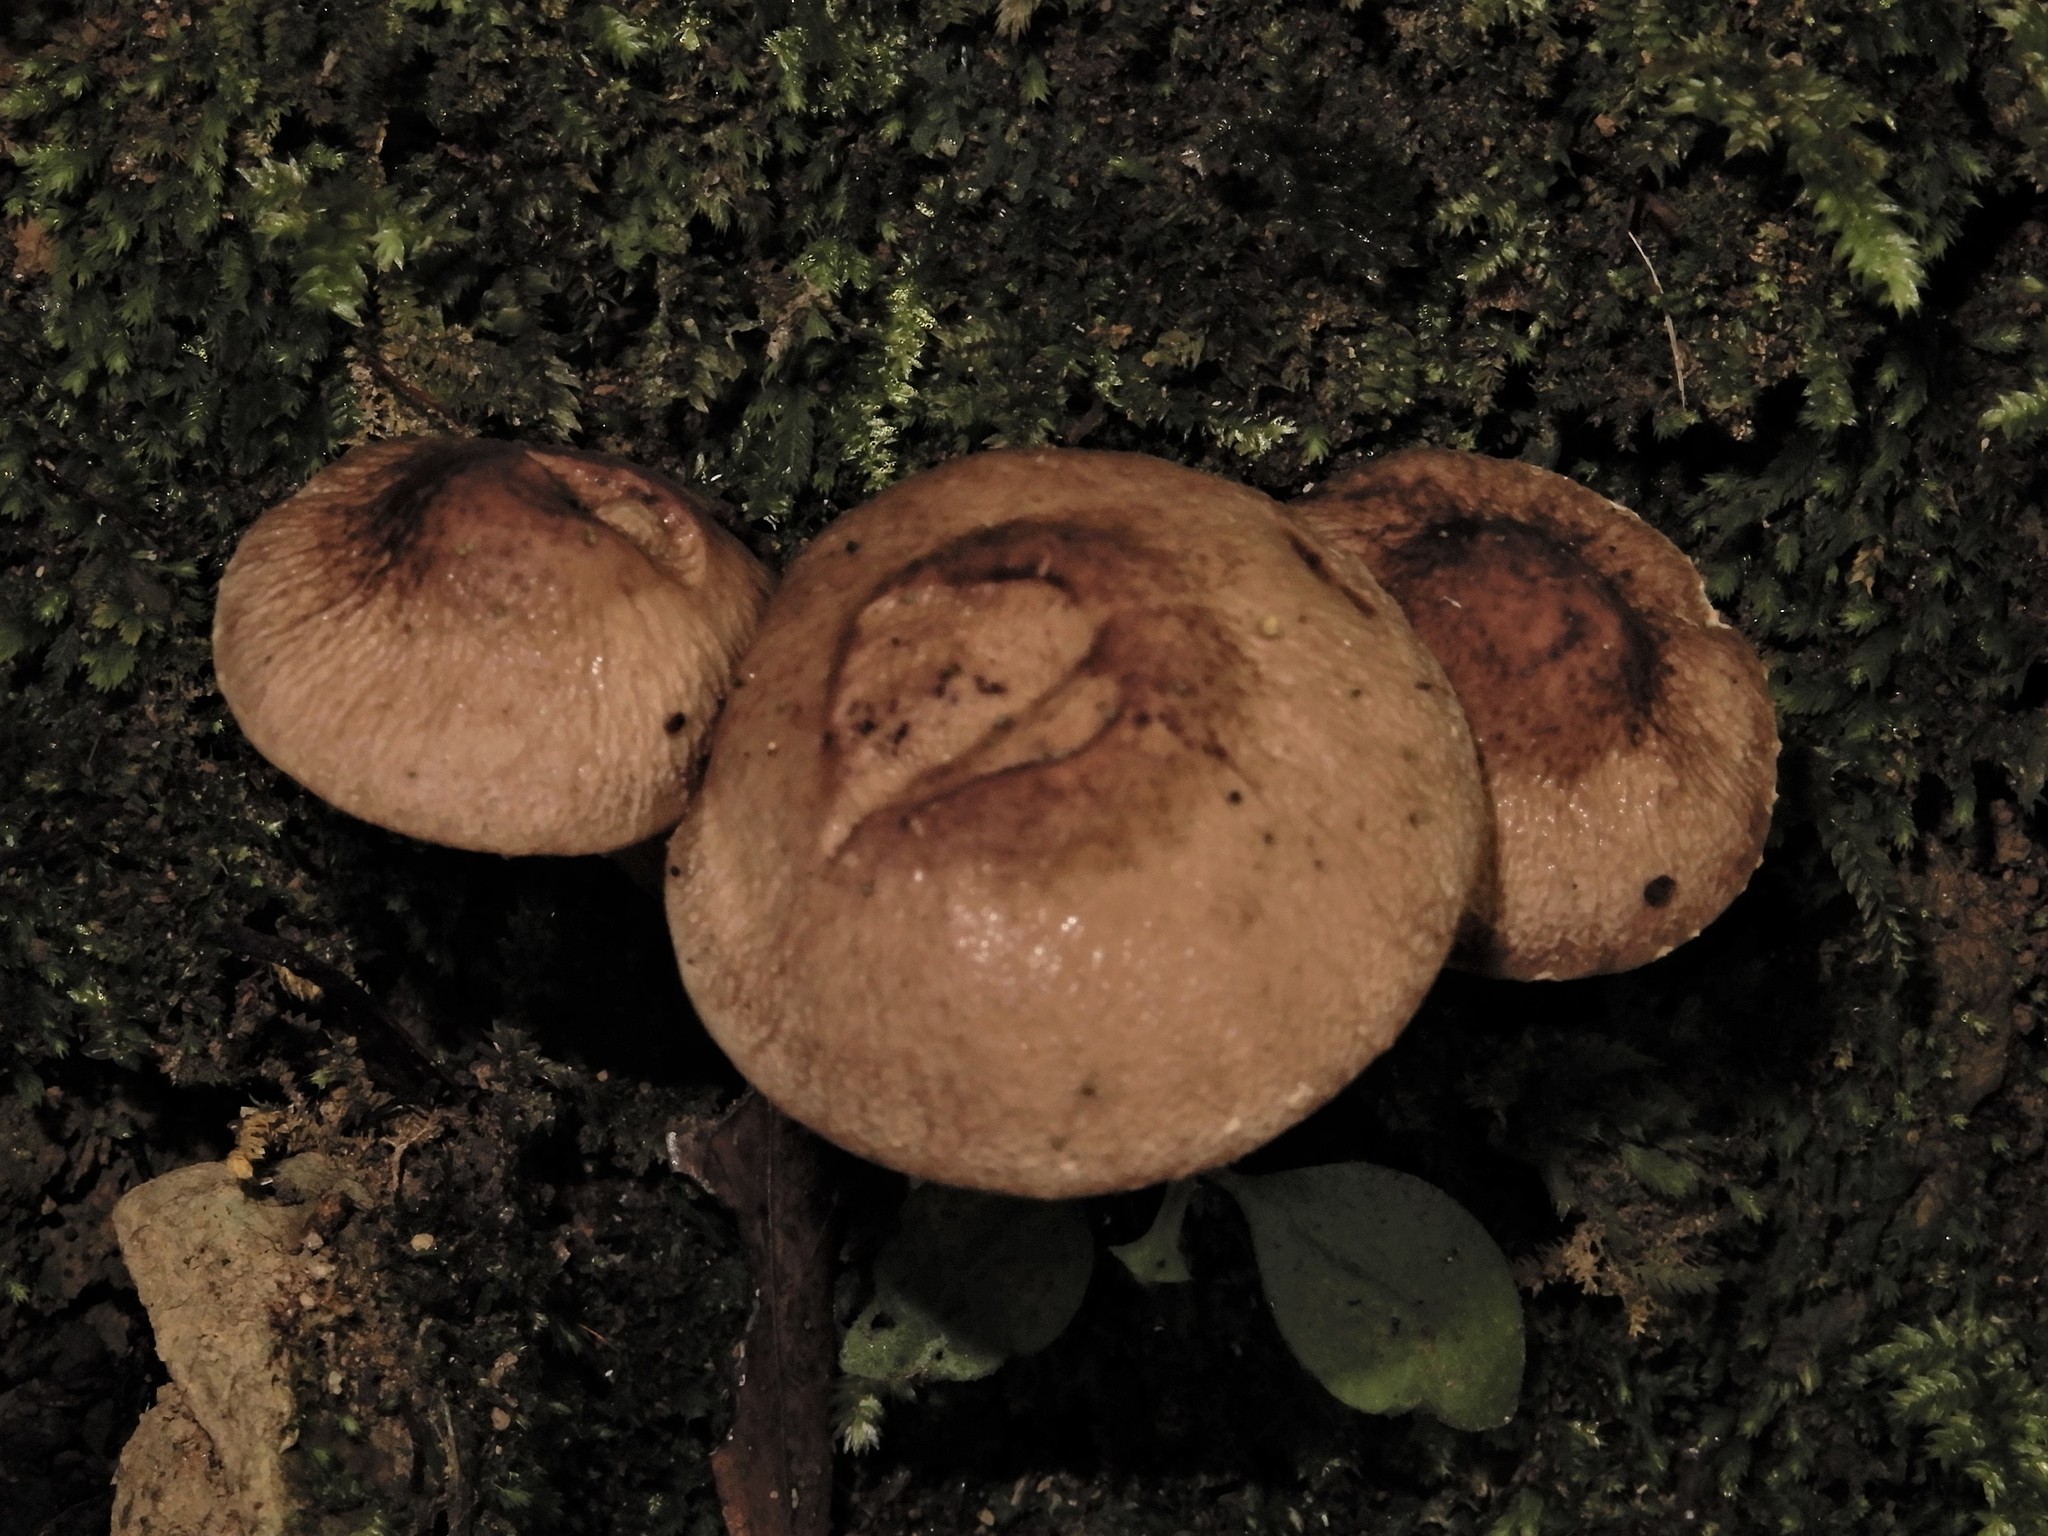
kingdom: Fungi
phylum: Basidiomycota
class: Agaricomycetes
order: Agaricales
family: Tubariaceae
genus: Cyclocybe
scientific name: Cyclocybe erebia
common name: Dark fieldcap
